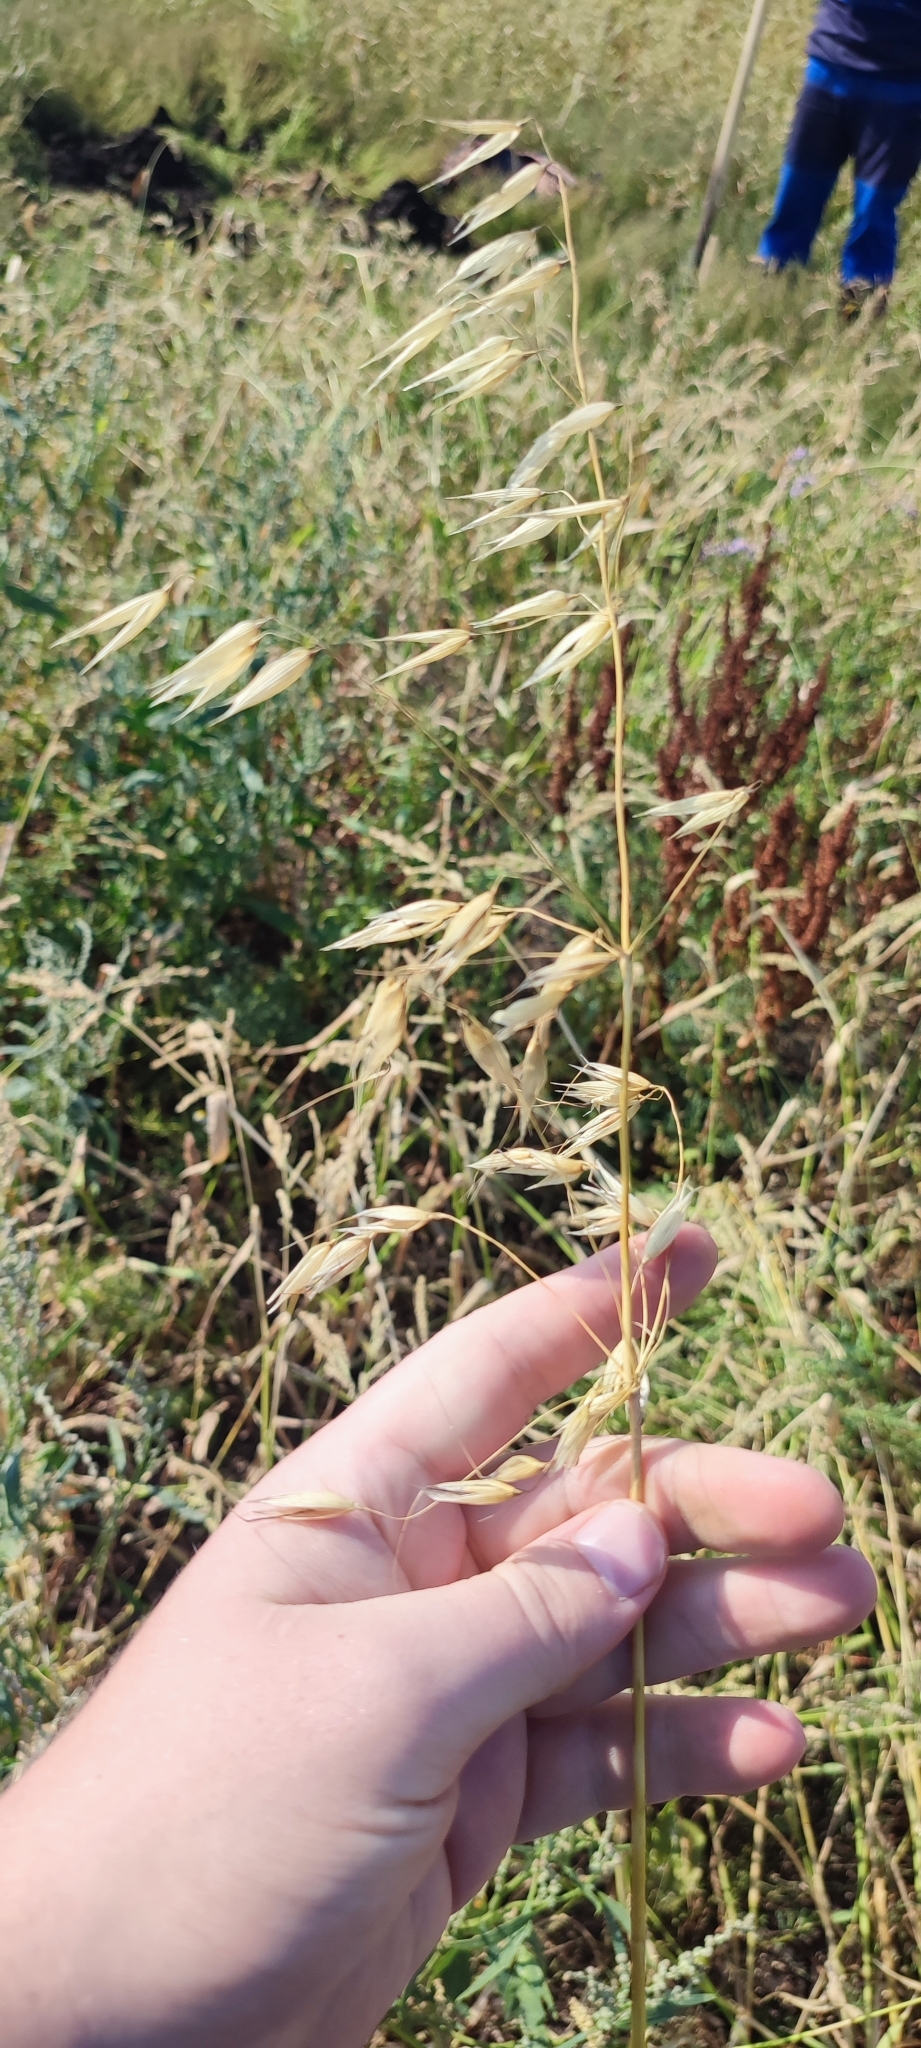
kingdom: Plantae
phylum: Tracheophyta
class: Liliopsida
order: Poales
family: Poaceae
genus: Avena
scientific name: Avena fatua
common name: Wild oat
